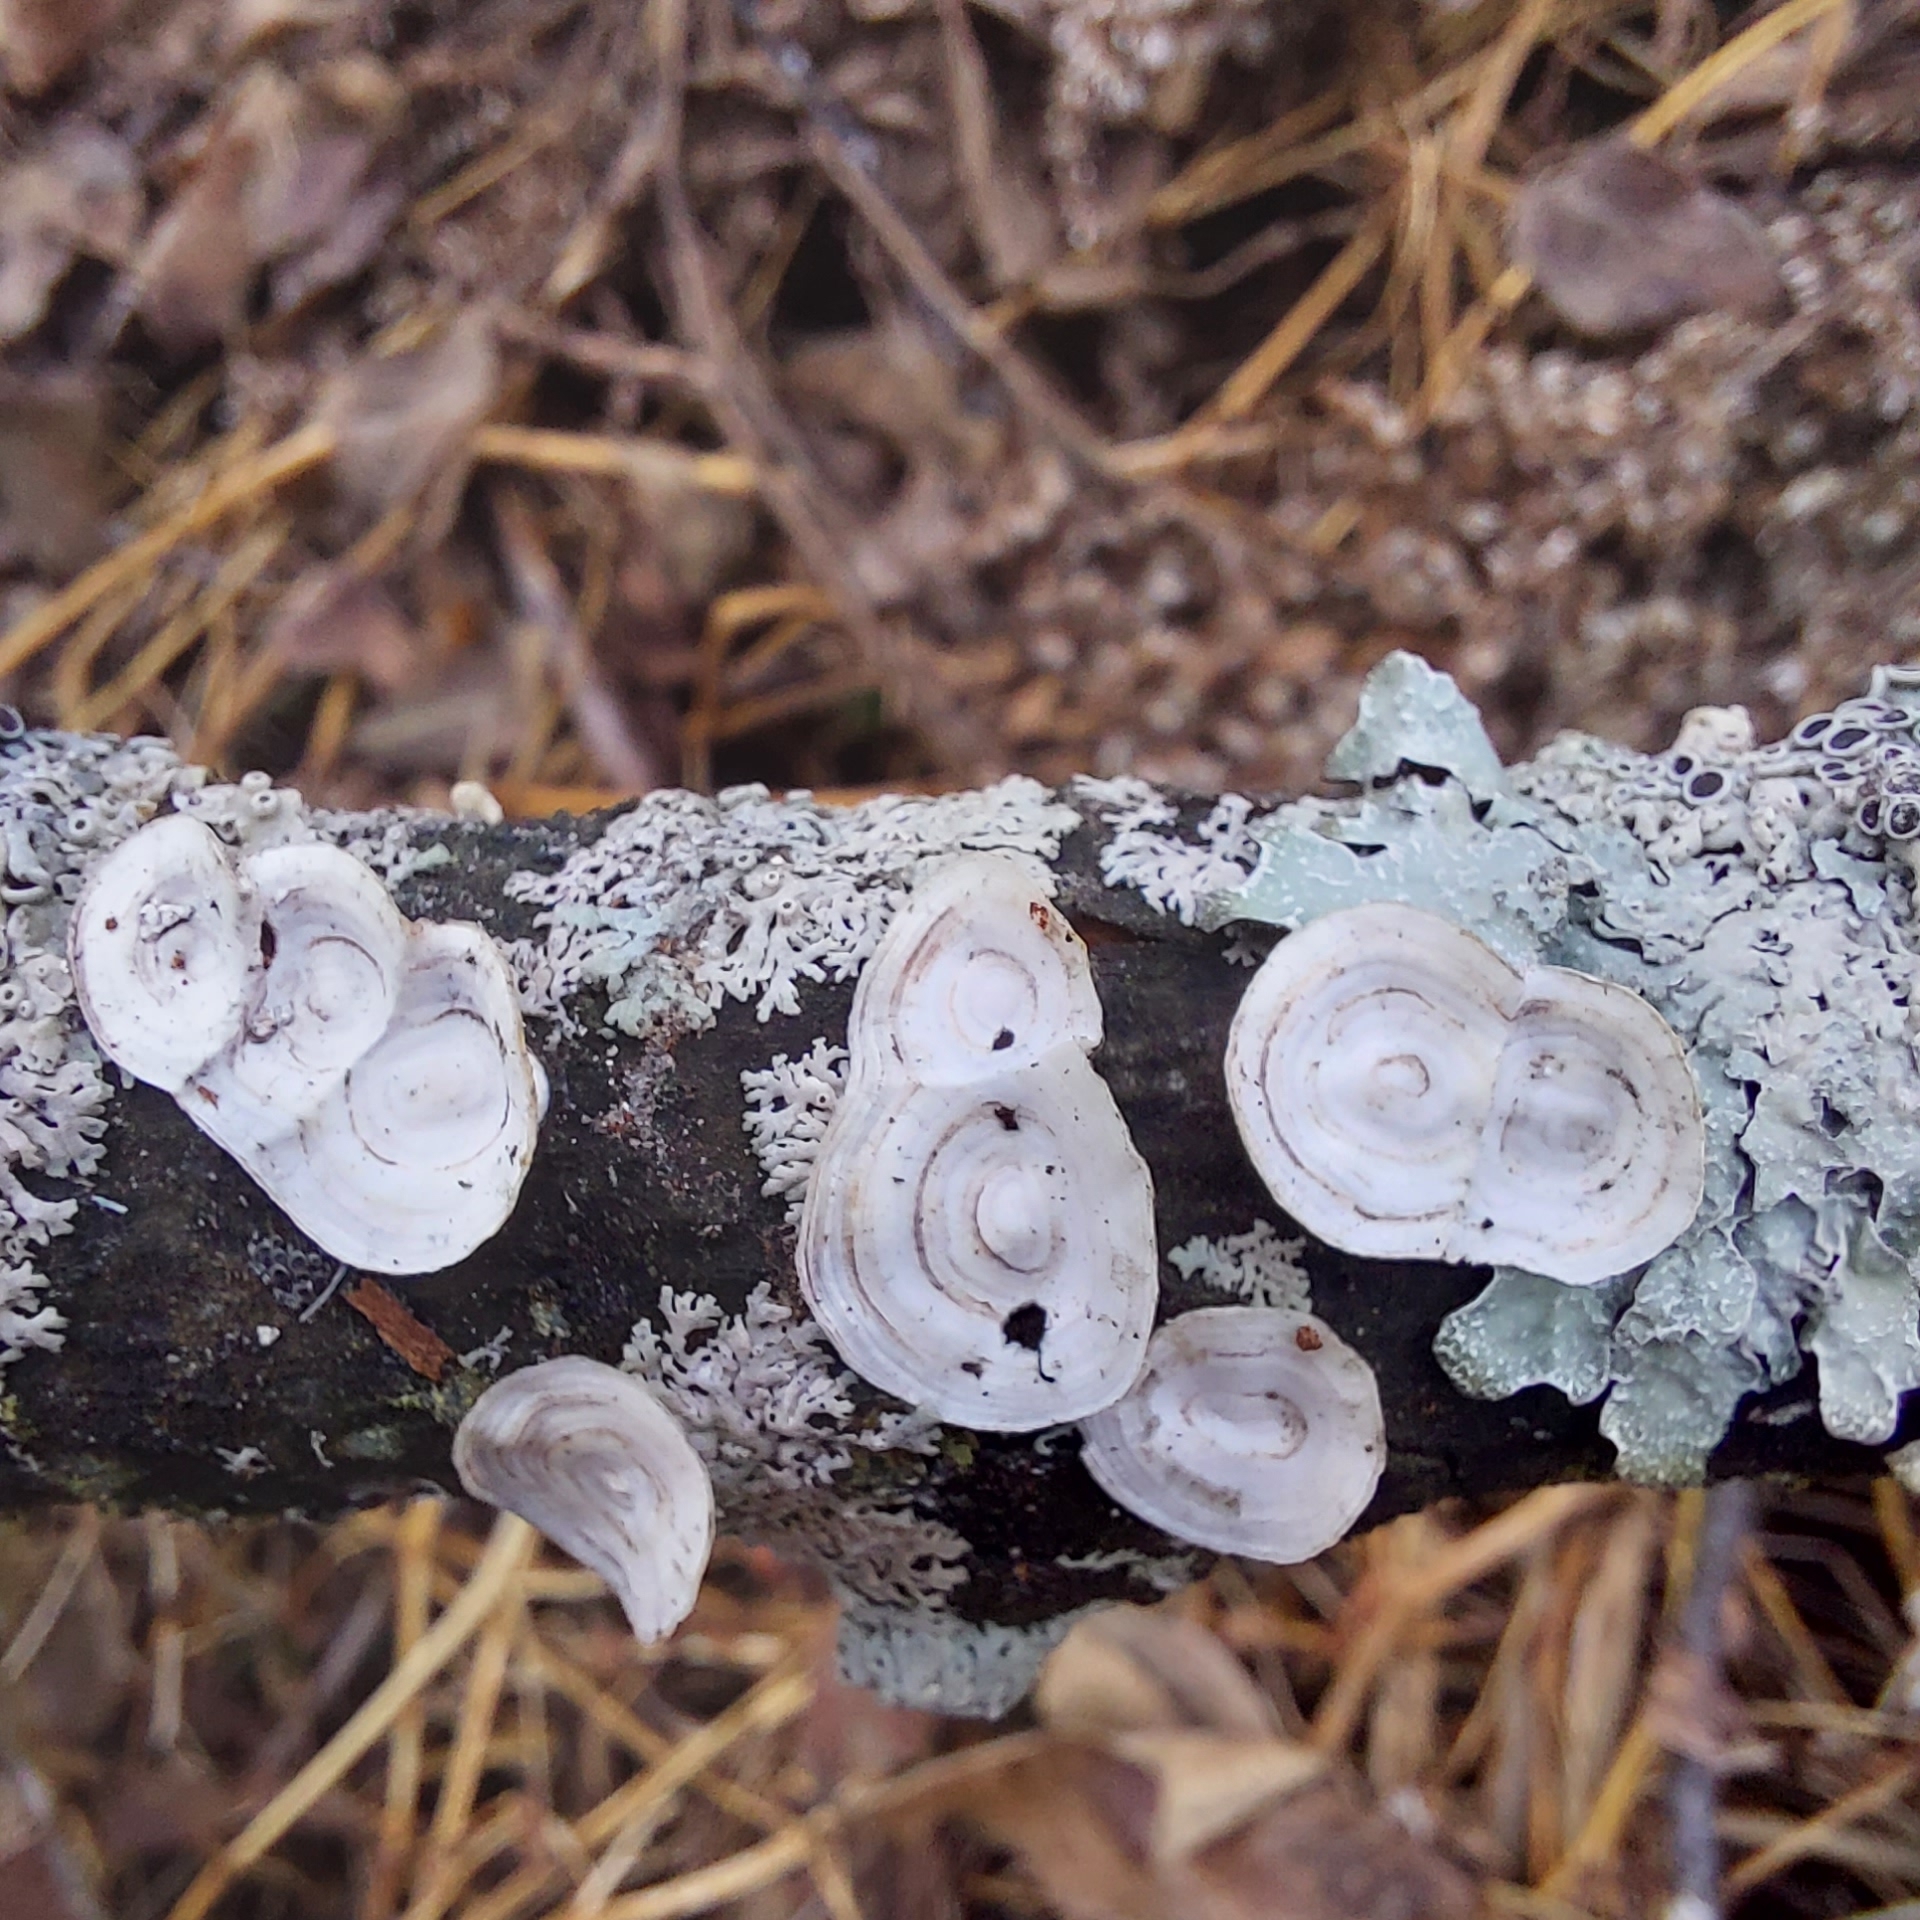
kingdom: Fungi
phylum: Basidiomycota
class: Agaricomycetes
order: Polyporales
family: Polyporaceae
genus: Poronidulus
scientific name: Poronidulus conchifer
